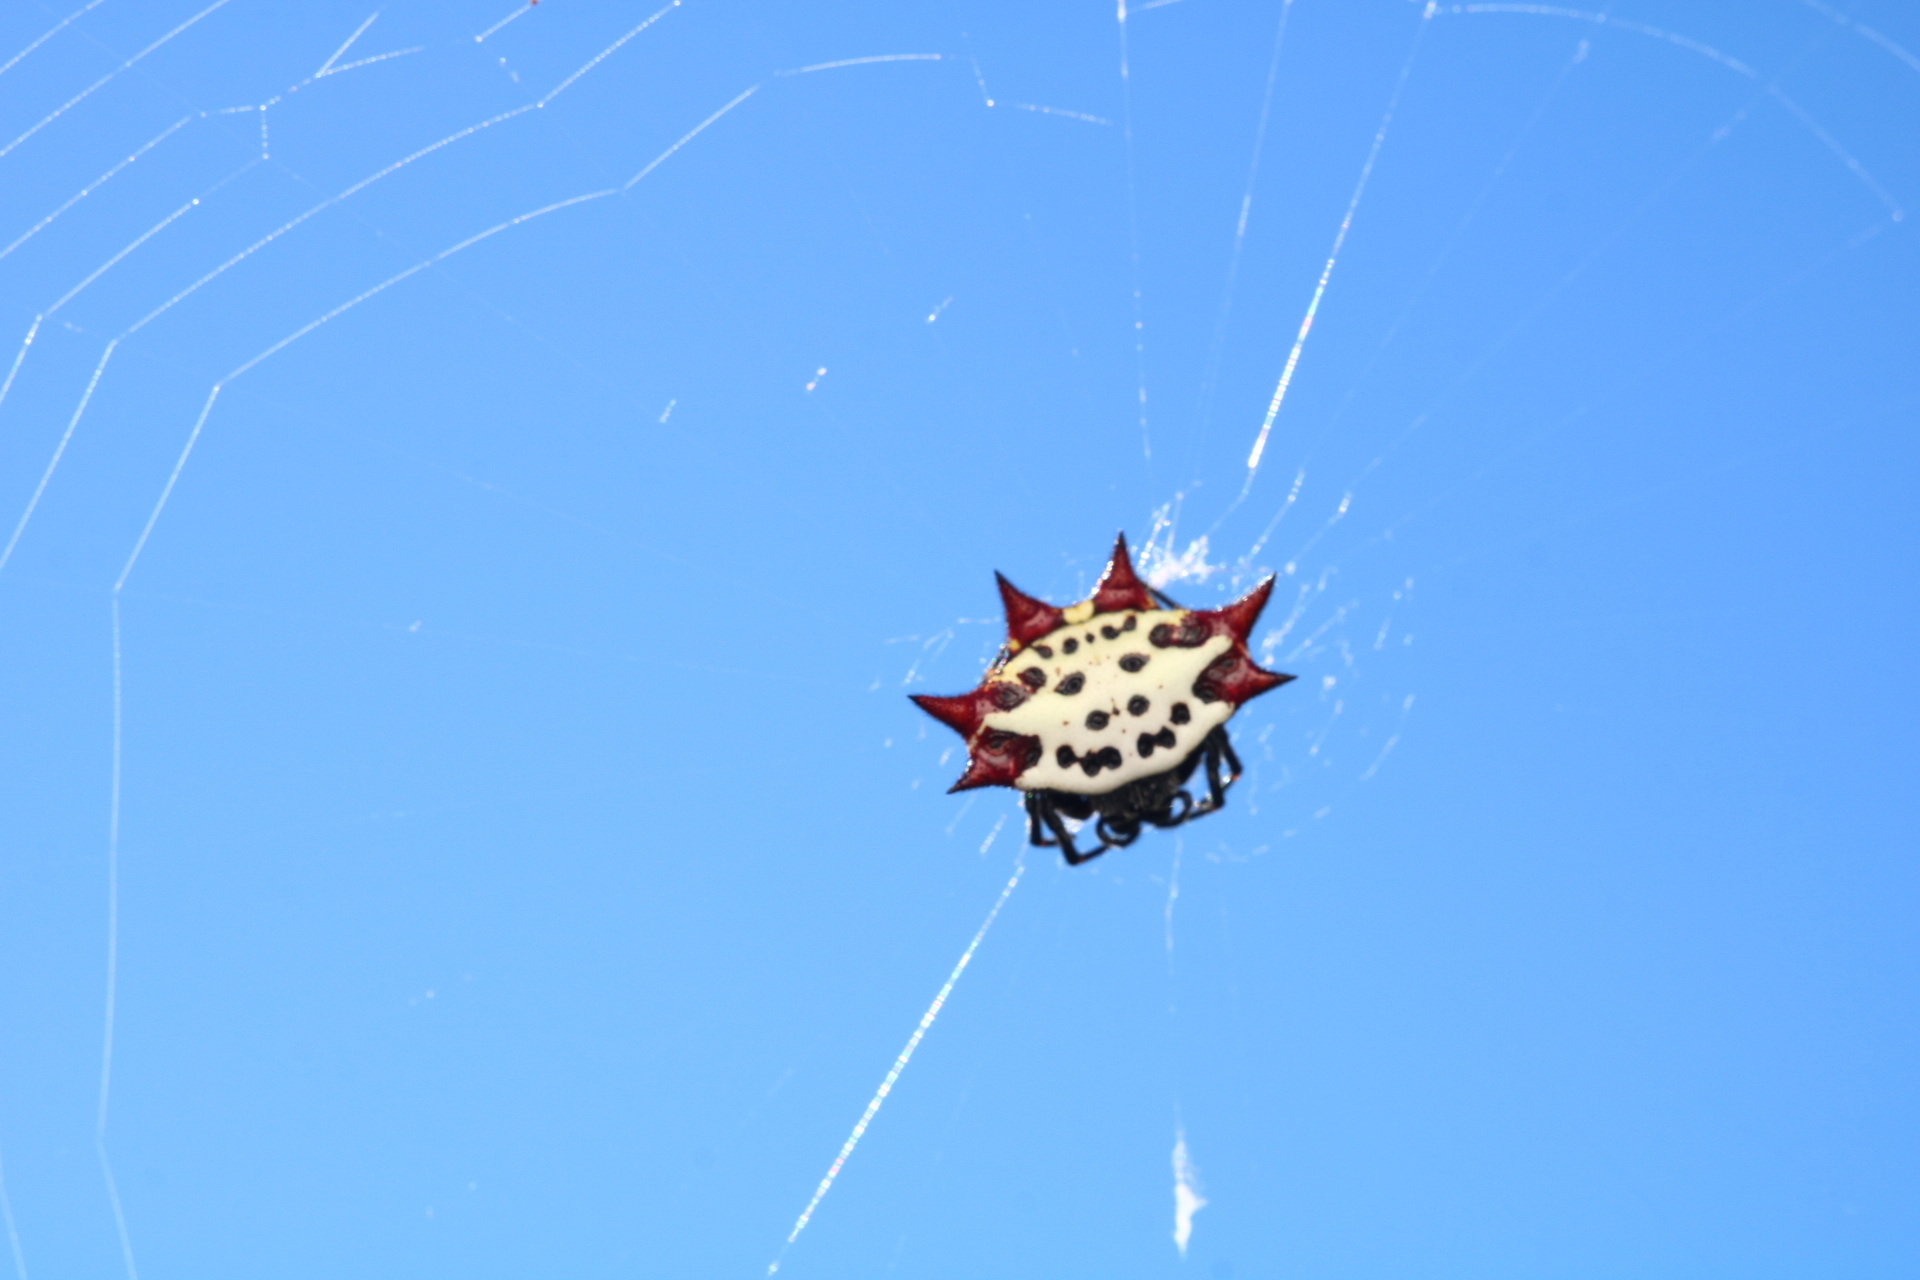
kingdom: Animalia
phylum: Arthropoda
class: Arachnida
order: Araneae
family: Araneidae
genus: Gasteracantha
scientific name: Gasteracantha cancriformis
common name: Orb weavers
